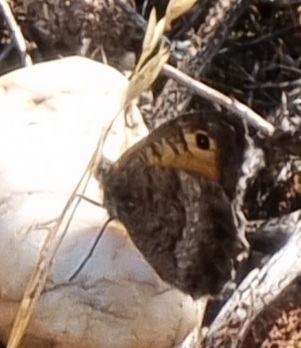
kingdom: Animalia
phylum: Arthropoda
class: Insecta
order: Lepidoptera
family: Nymphalidae
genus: Arethusana
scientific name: Arethusana arethusa
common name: False grayling
